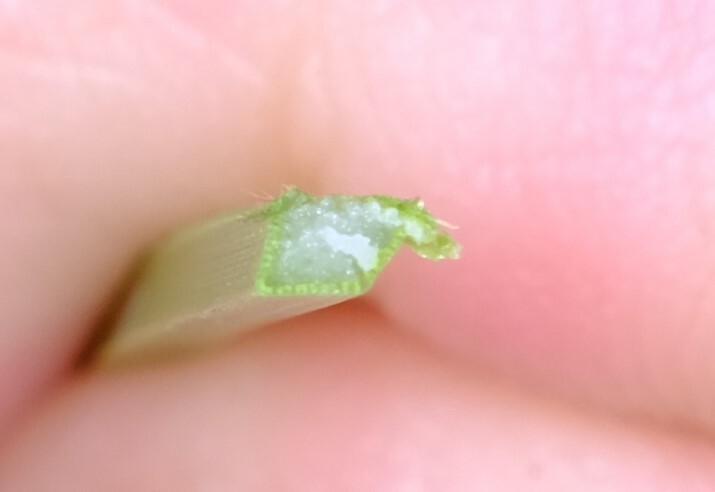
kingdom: Plantae
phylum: Tracheophyta
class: Liliopsida
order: Asparagales
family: Asphodelaceae
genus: Xanthorrhoea
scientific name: Xanthorrhoea fulva
